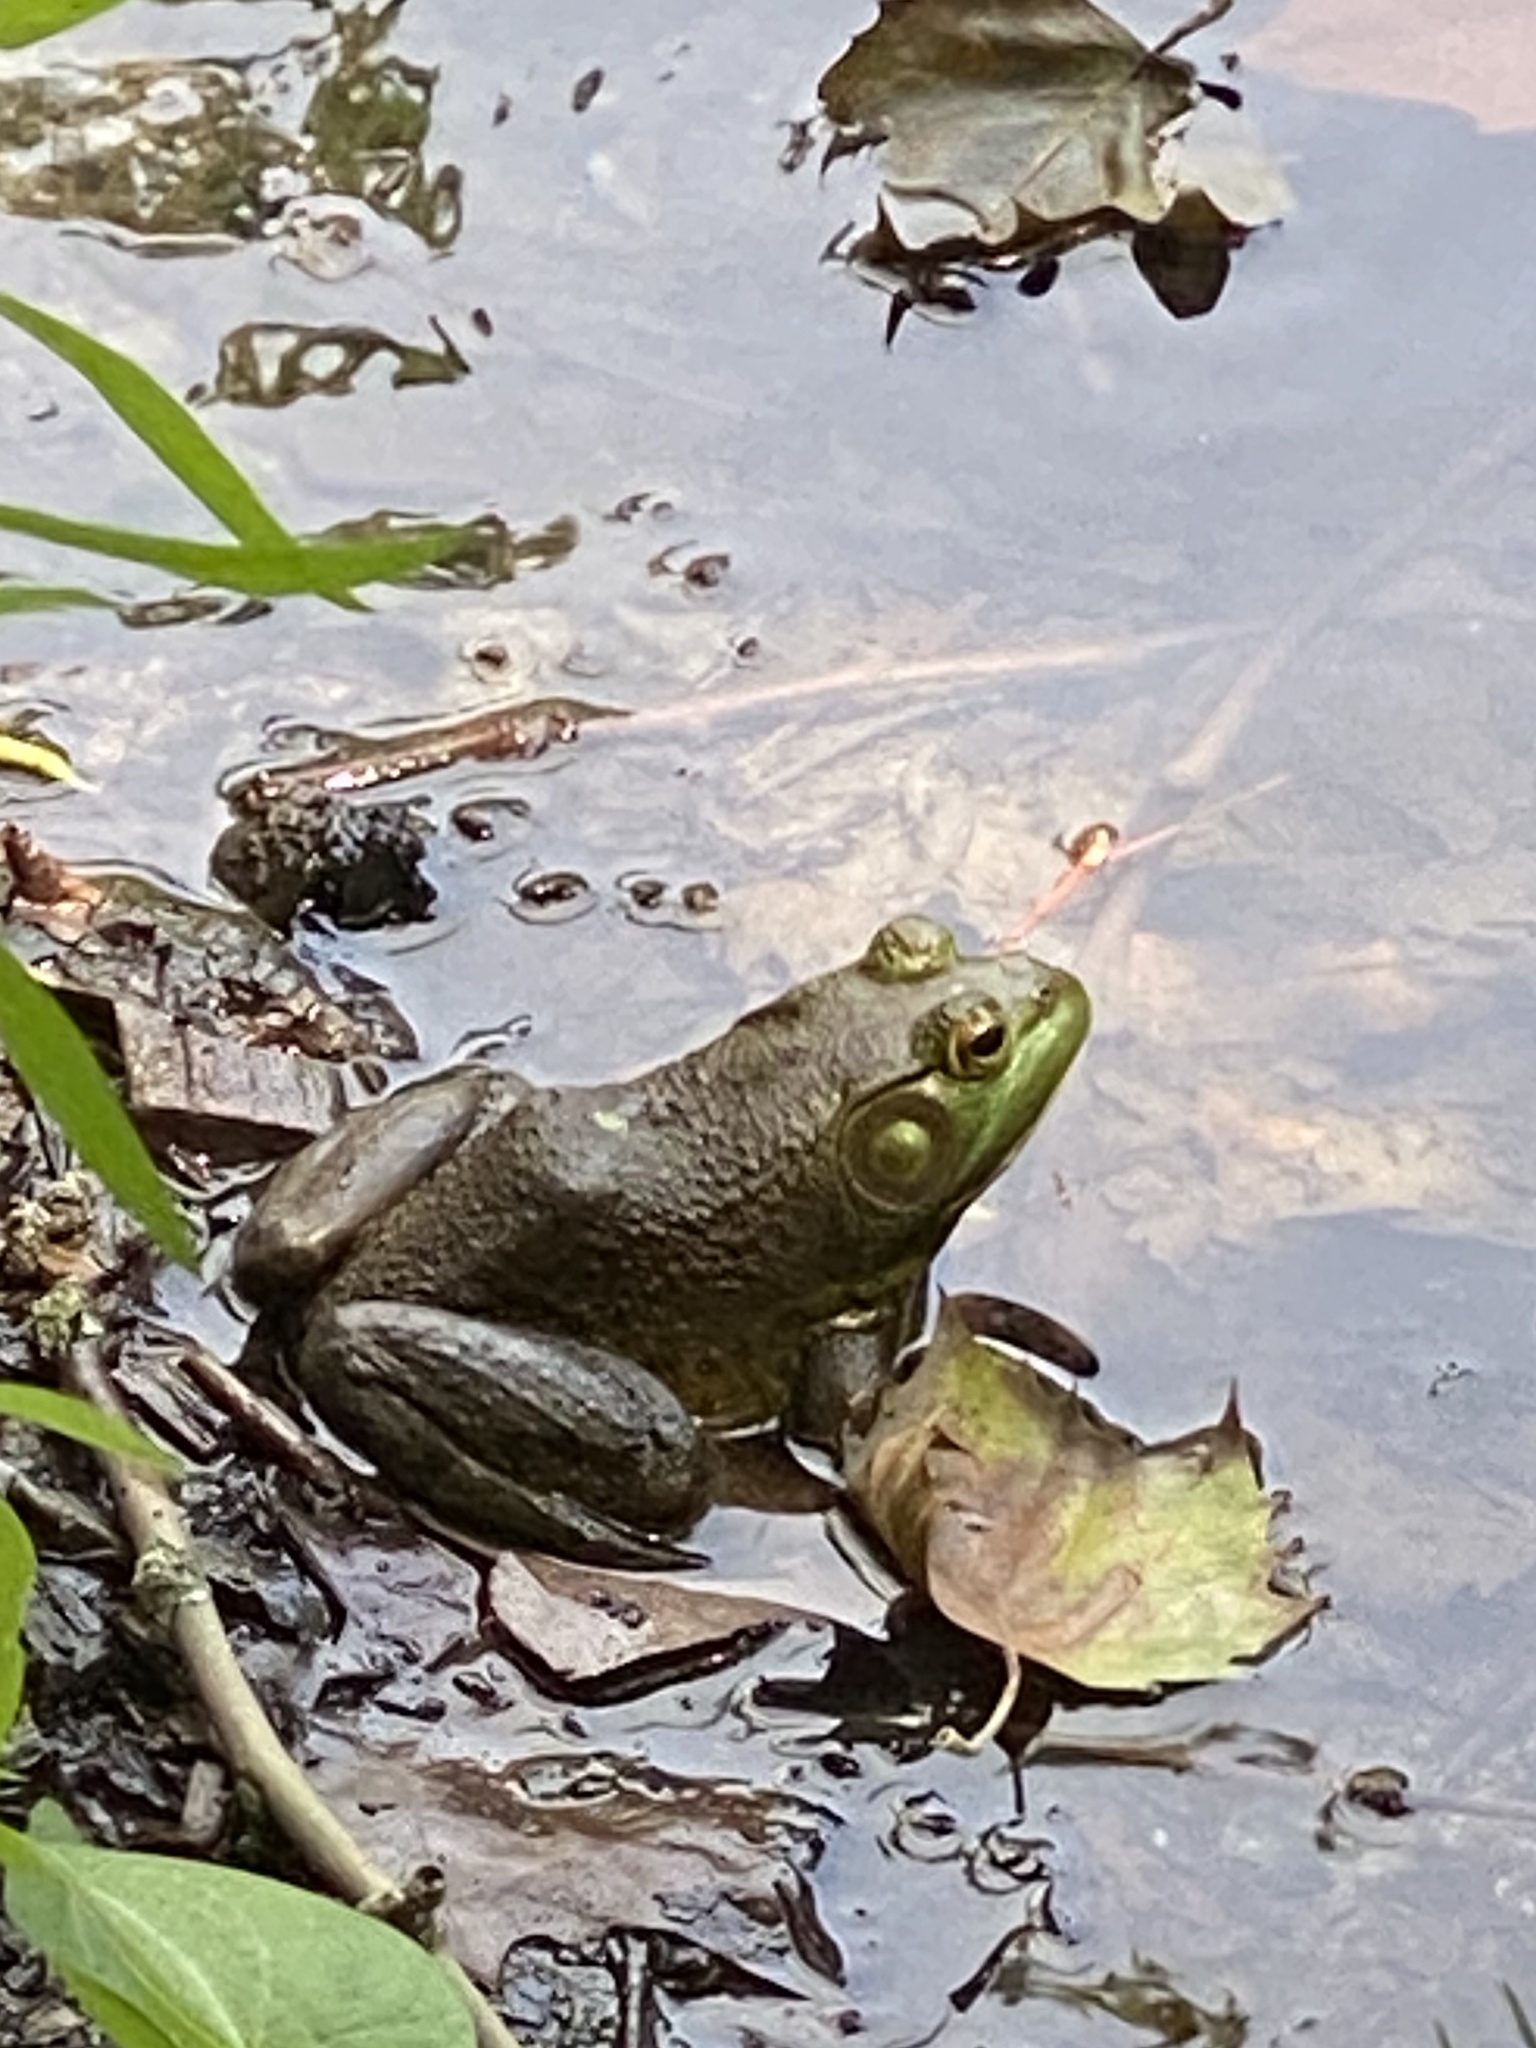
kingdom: Animalia
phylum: Chordata
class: Amphibia
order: Anura
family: Ranidae
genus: Lithobates
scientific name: Lithobates catesbeianus
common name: American bullfrog
